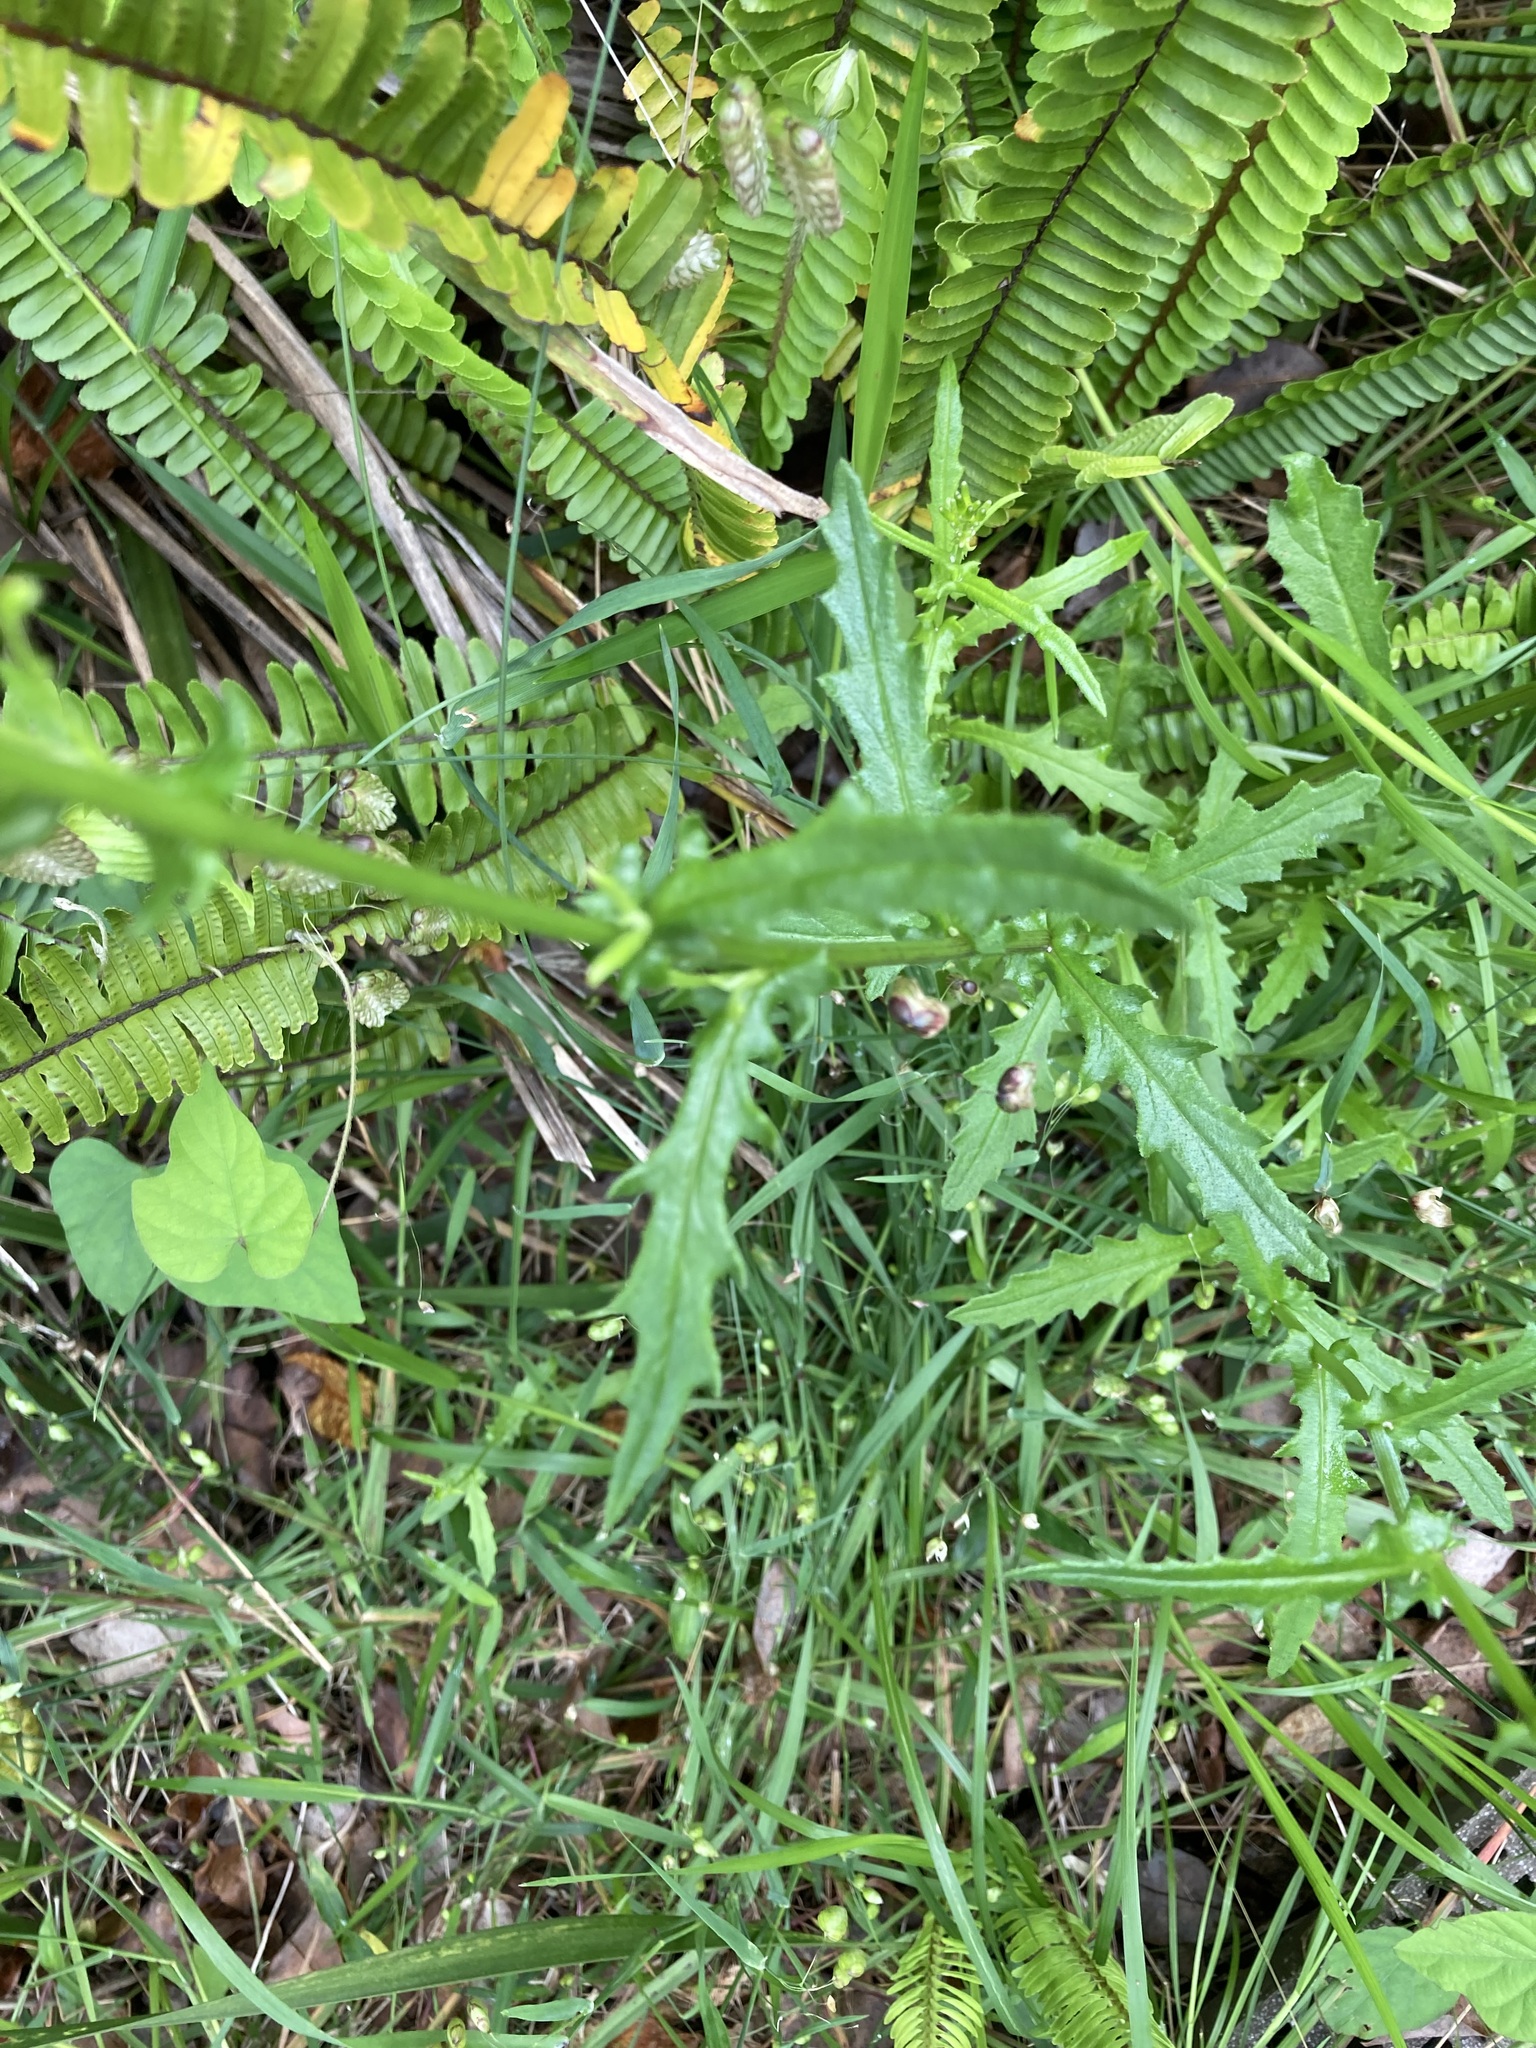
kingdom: Plantae
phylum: Tracheophyta
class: Magnoliopsida
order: Asterales
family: Asteraceae
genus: Senecio
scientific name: Senecio hispidulus
